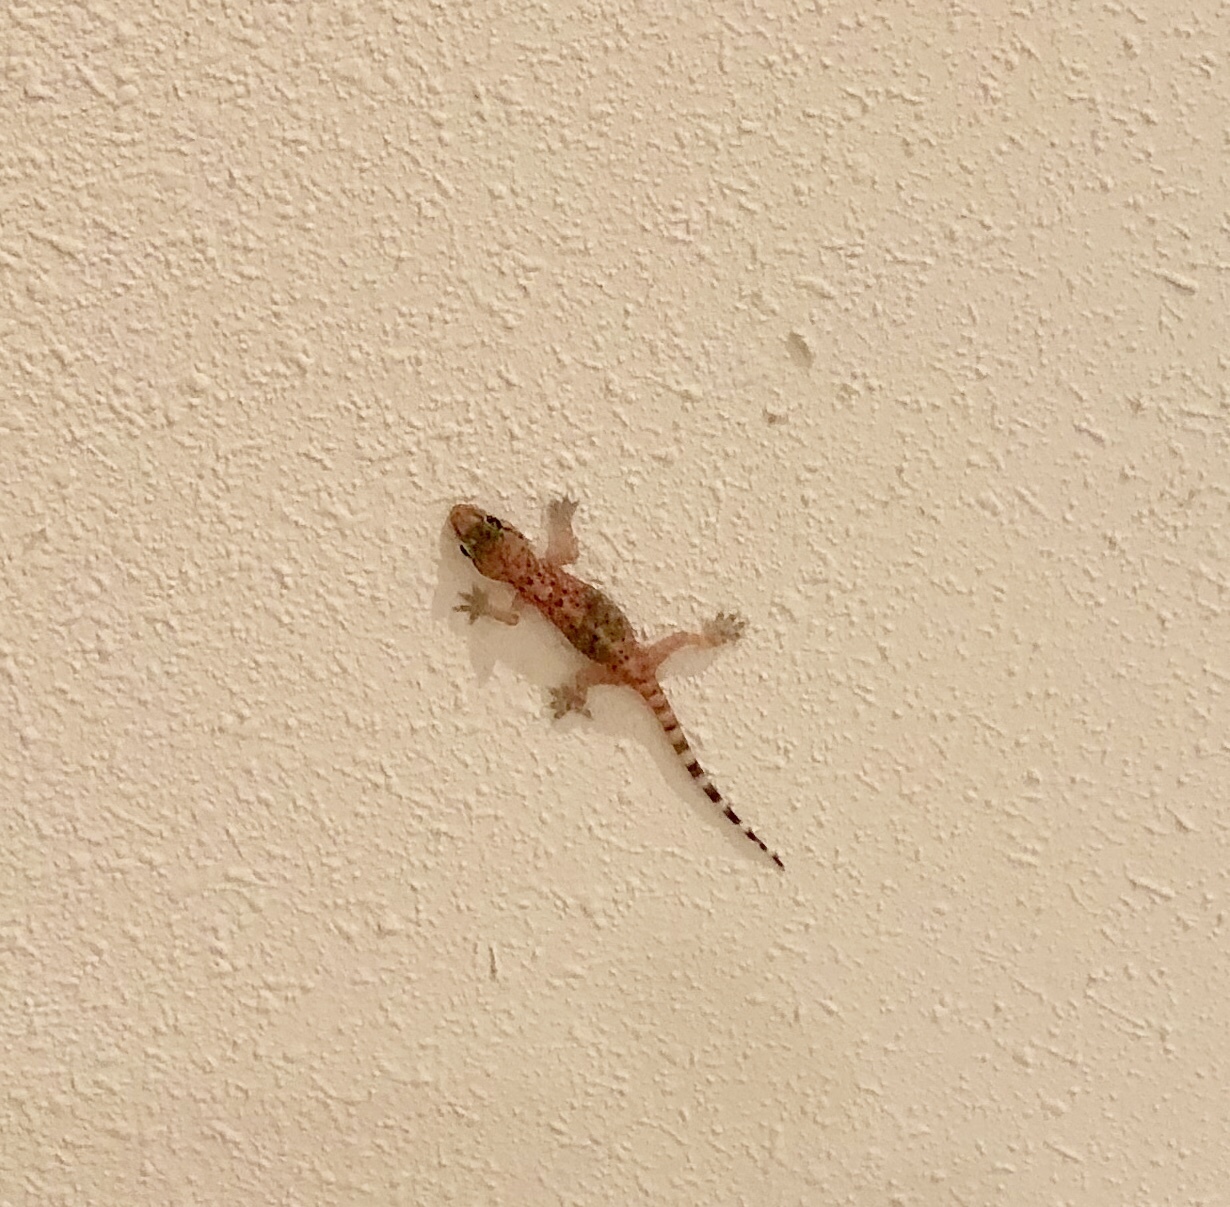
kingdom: Animalia
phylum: Chordata
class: Squamata
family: Gekkonidae
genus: Hemidactylus
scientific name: Hemidactylus turcicus
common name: Turkish gecko
